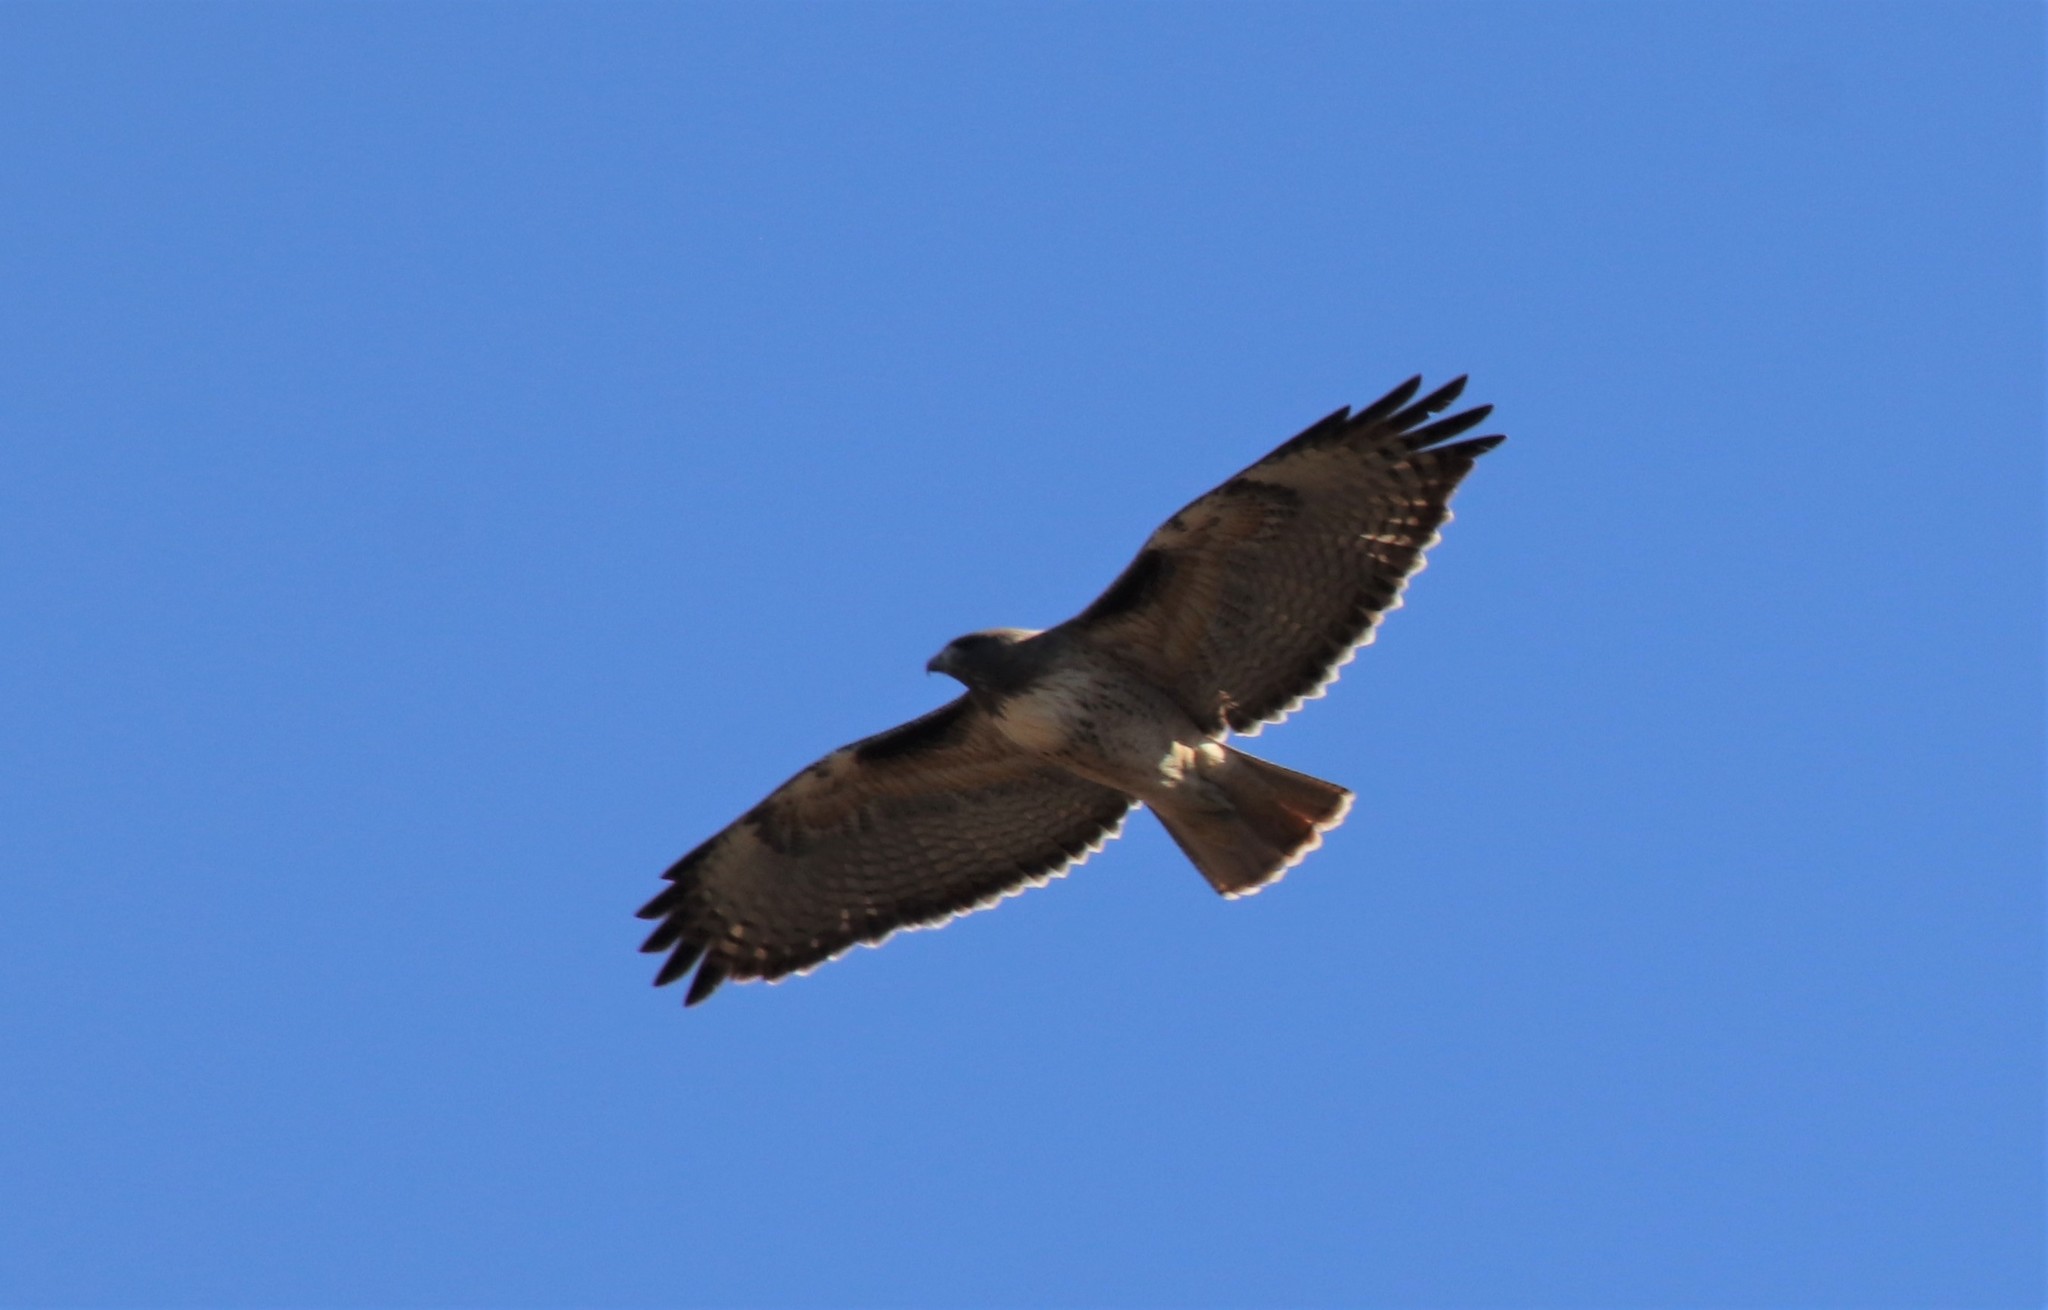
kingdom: Animalia
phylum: Chordata
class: Aves
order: Accipitriformes
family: Accipitridae
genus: Buteo
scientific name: Buteo jamaicensis
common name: Red-tailed hawk
